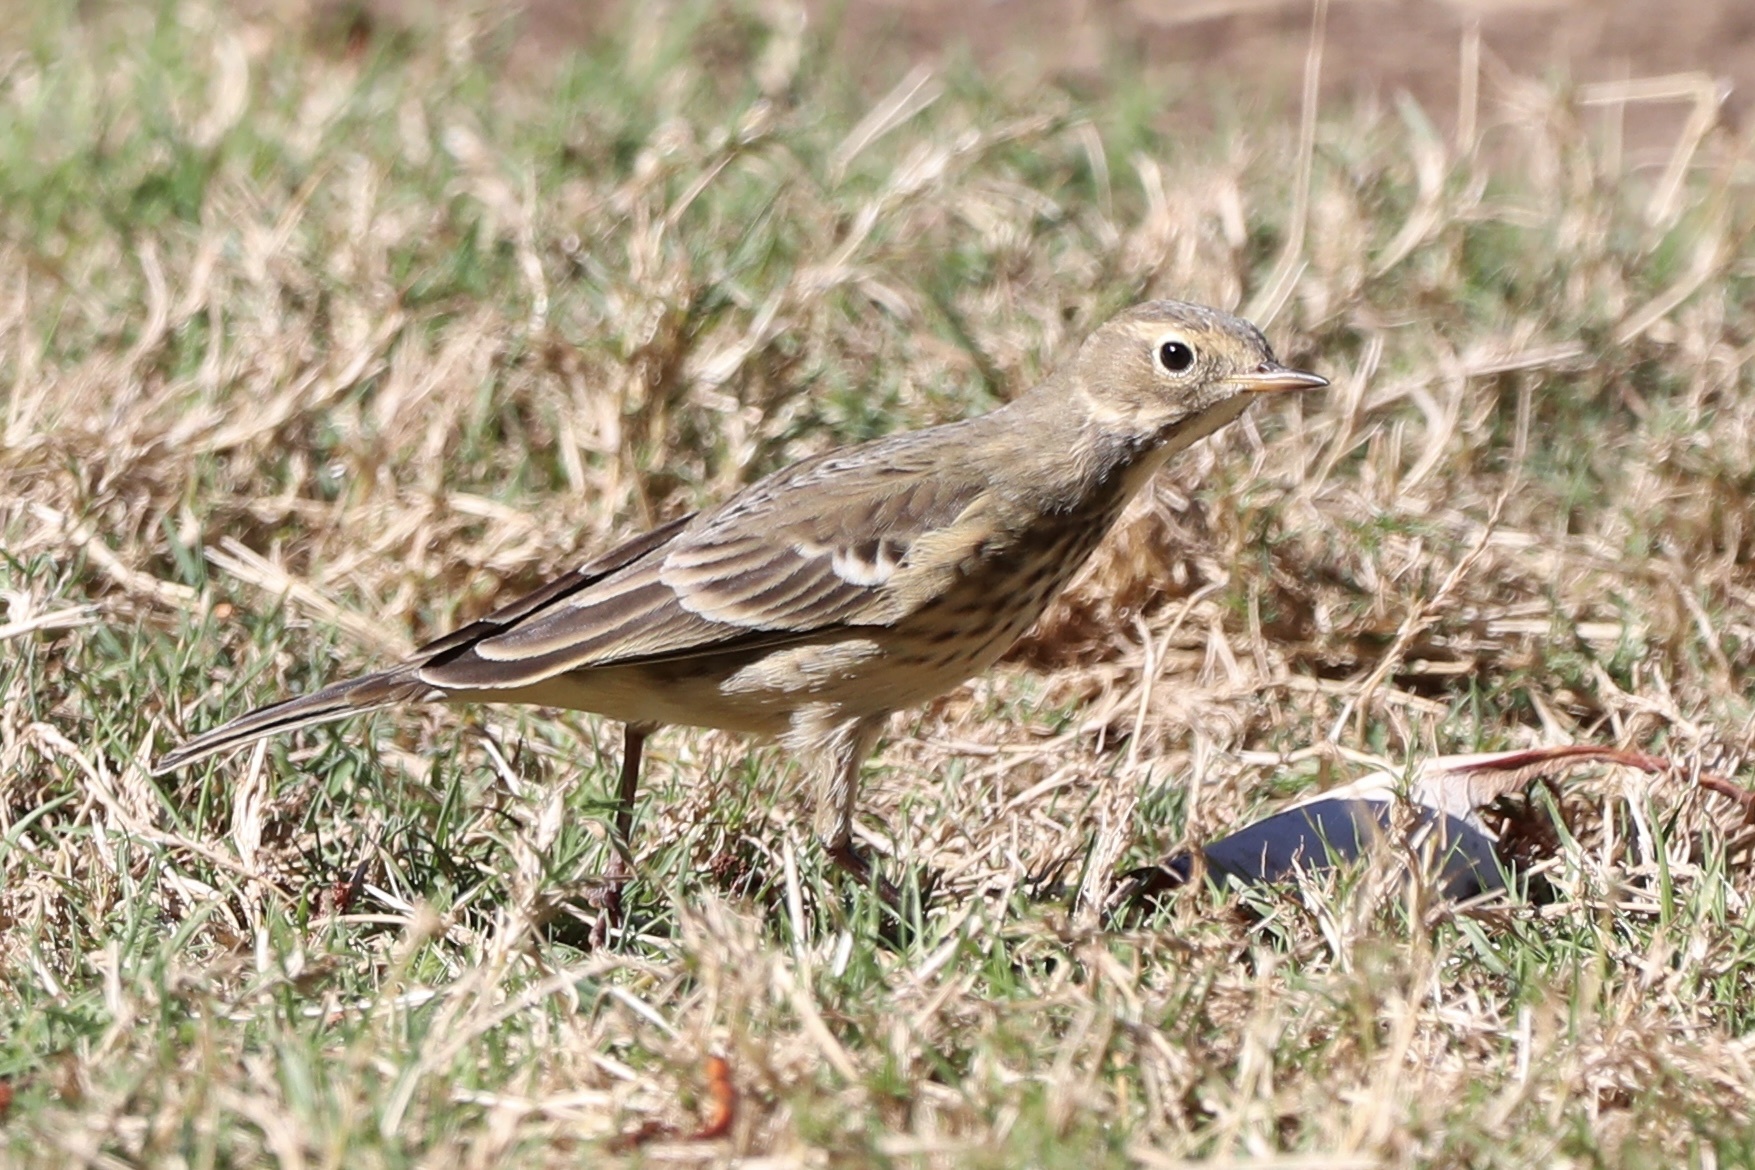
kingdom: Animalia
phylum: Chordata
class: Aves
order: Passeriformes
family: Motacillidae
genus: Anthus
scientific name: Anthus rubescens
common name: Buff-bellied pipit
